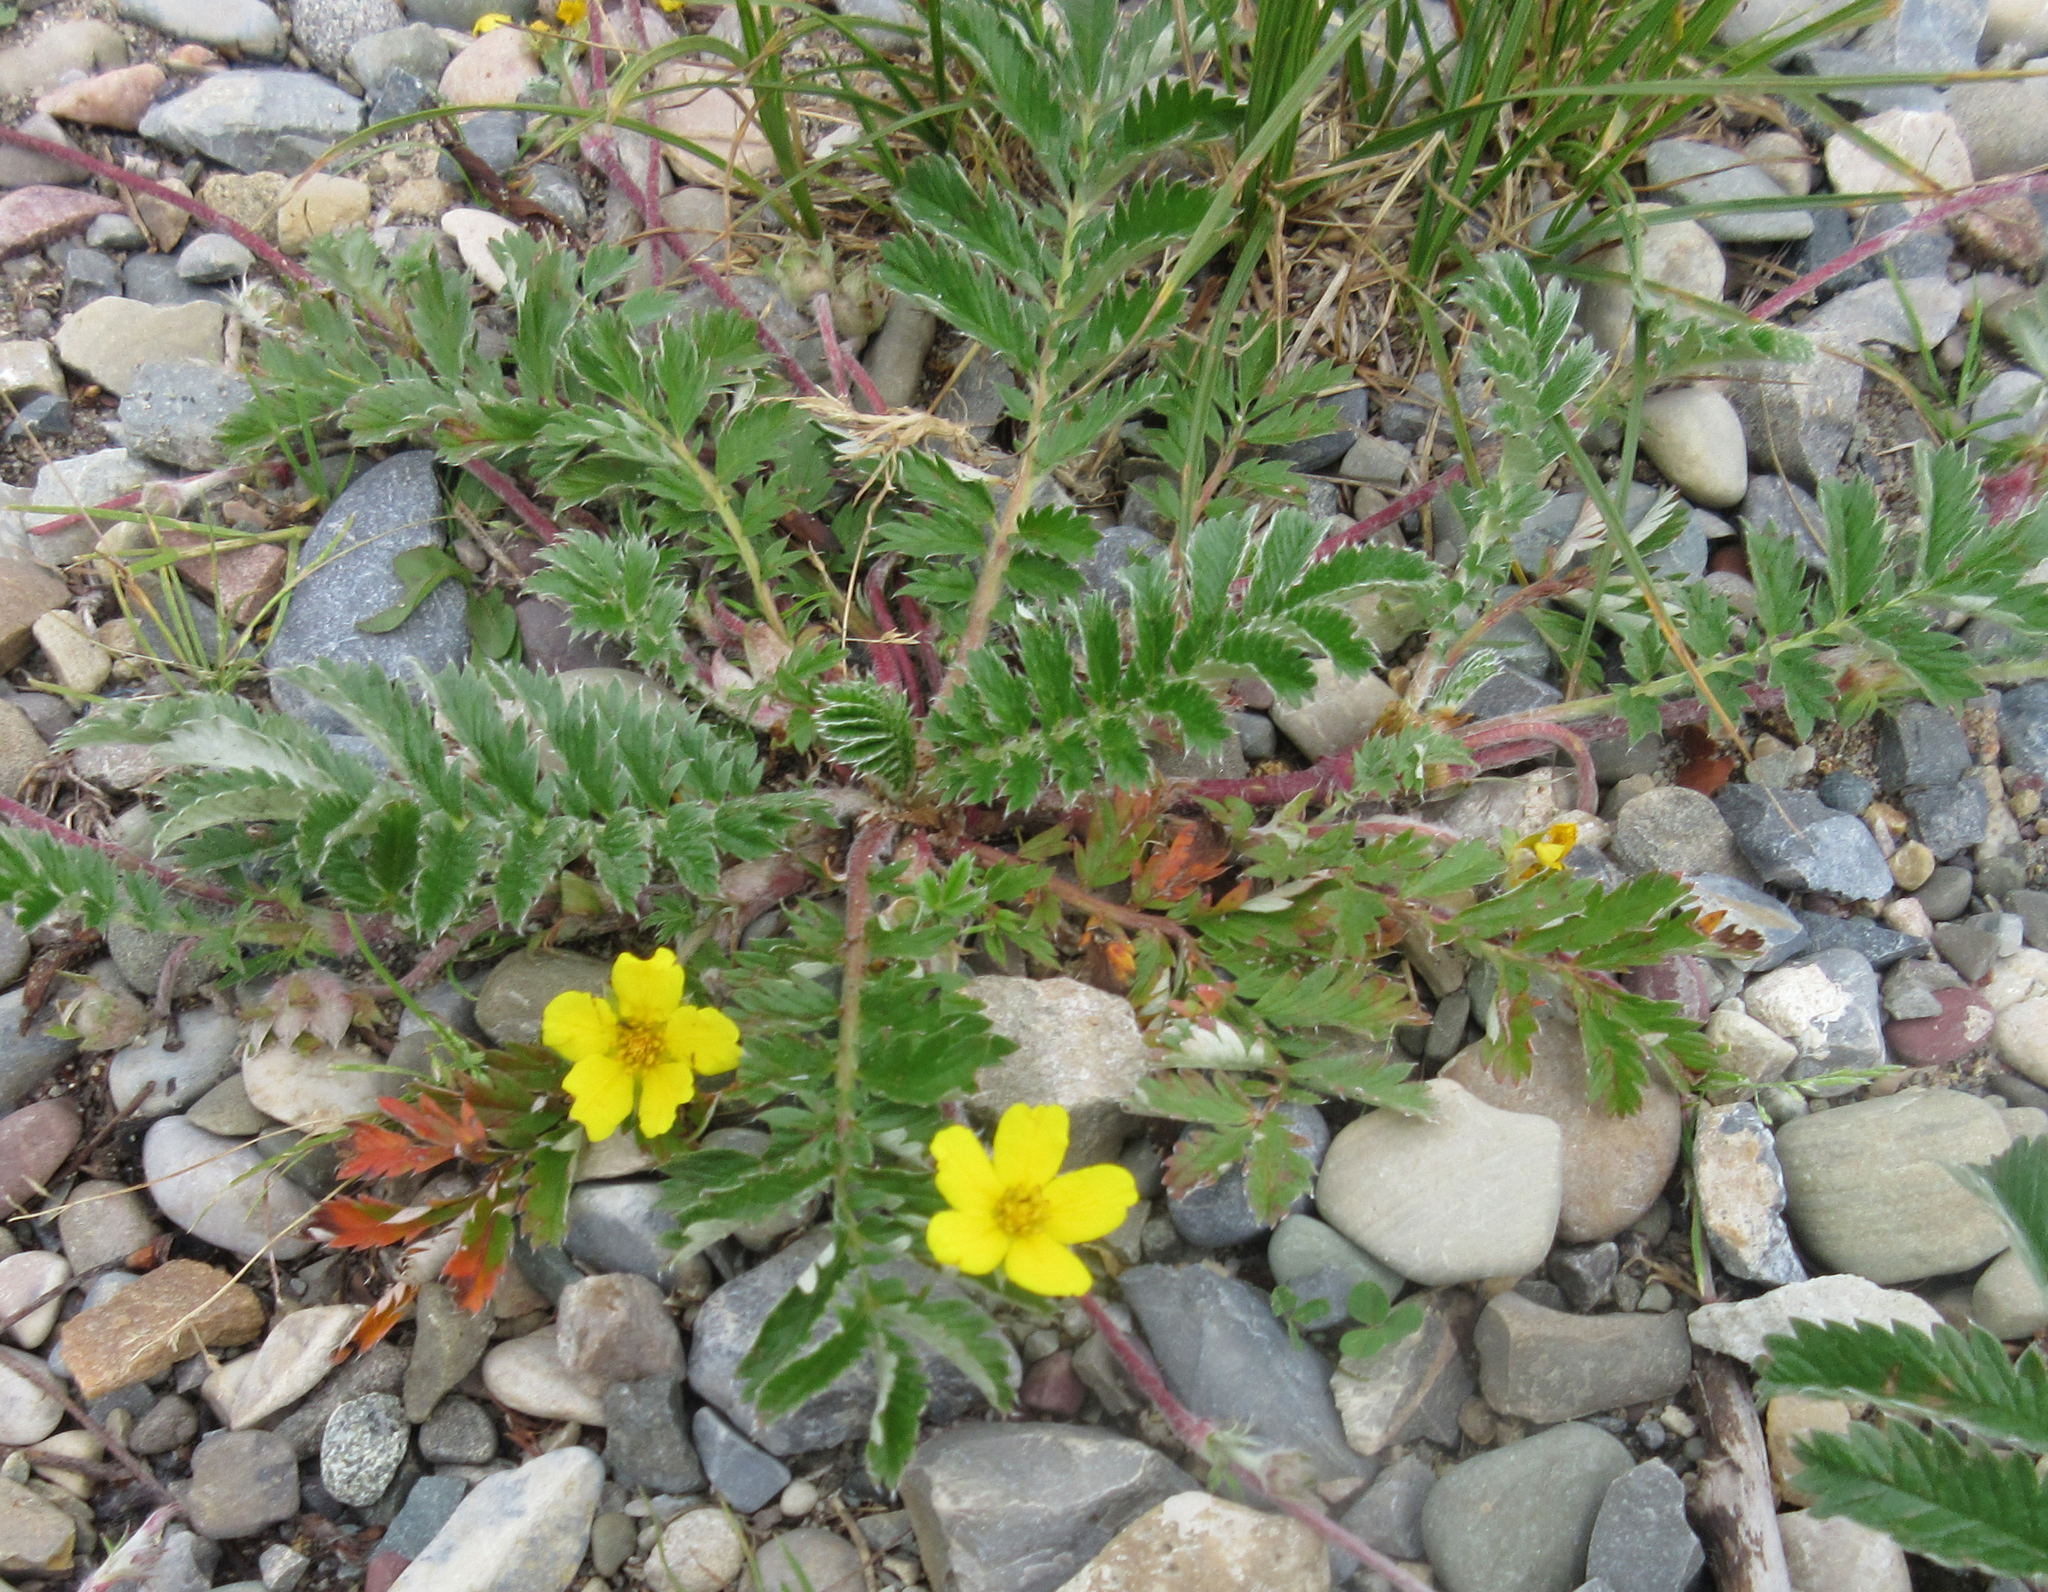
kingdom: Plantae
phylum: Tracheophyta
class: Magnoliopsida
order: Rosales
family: Rosaceae
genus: Argentina
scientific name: Argentina anserina
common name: Common silverweed
